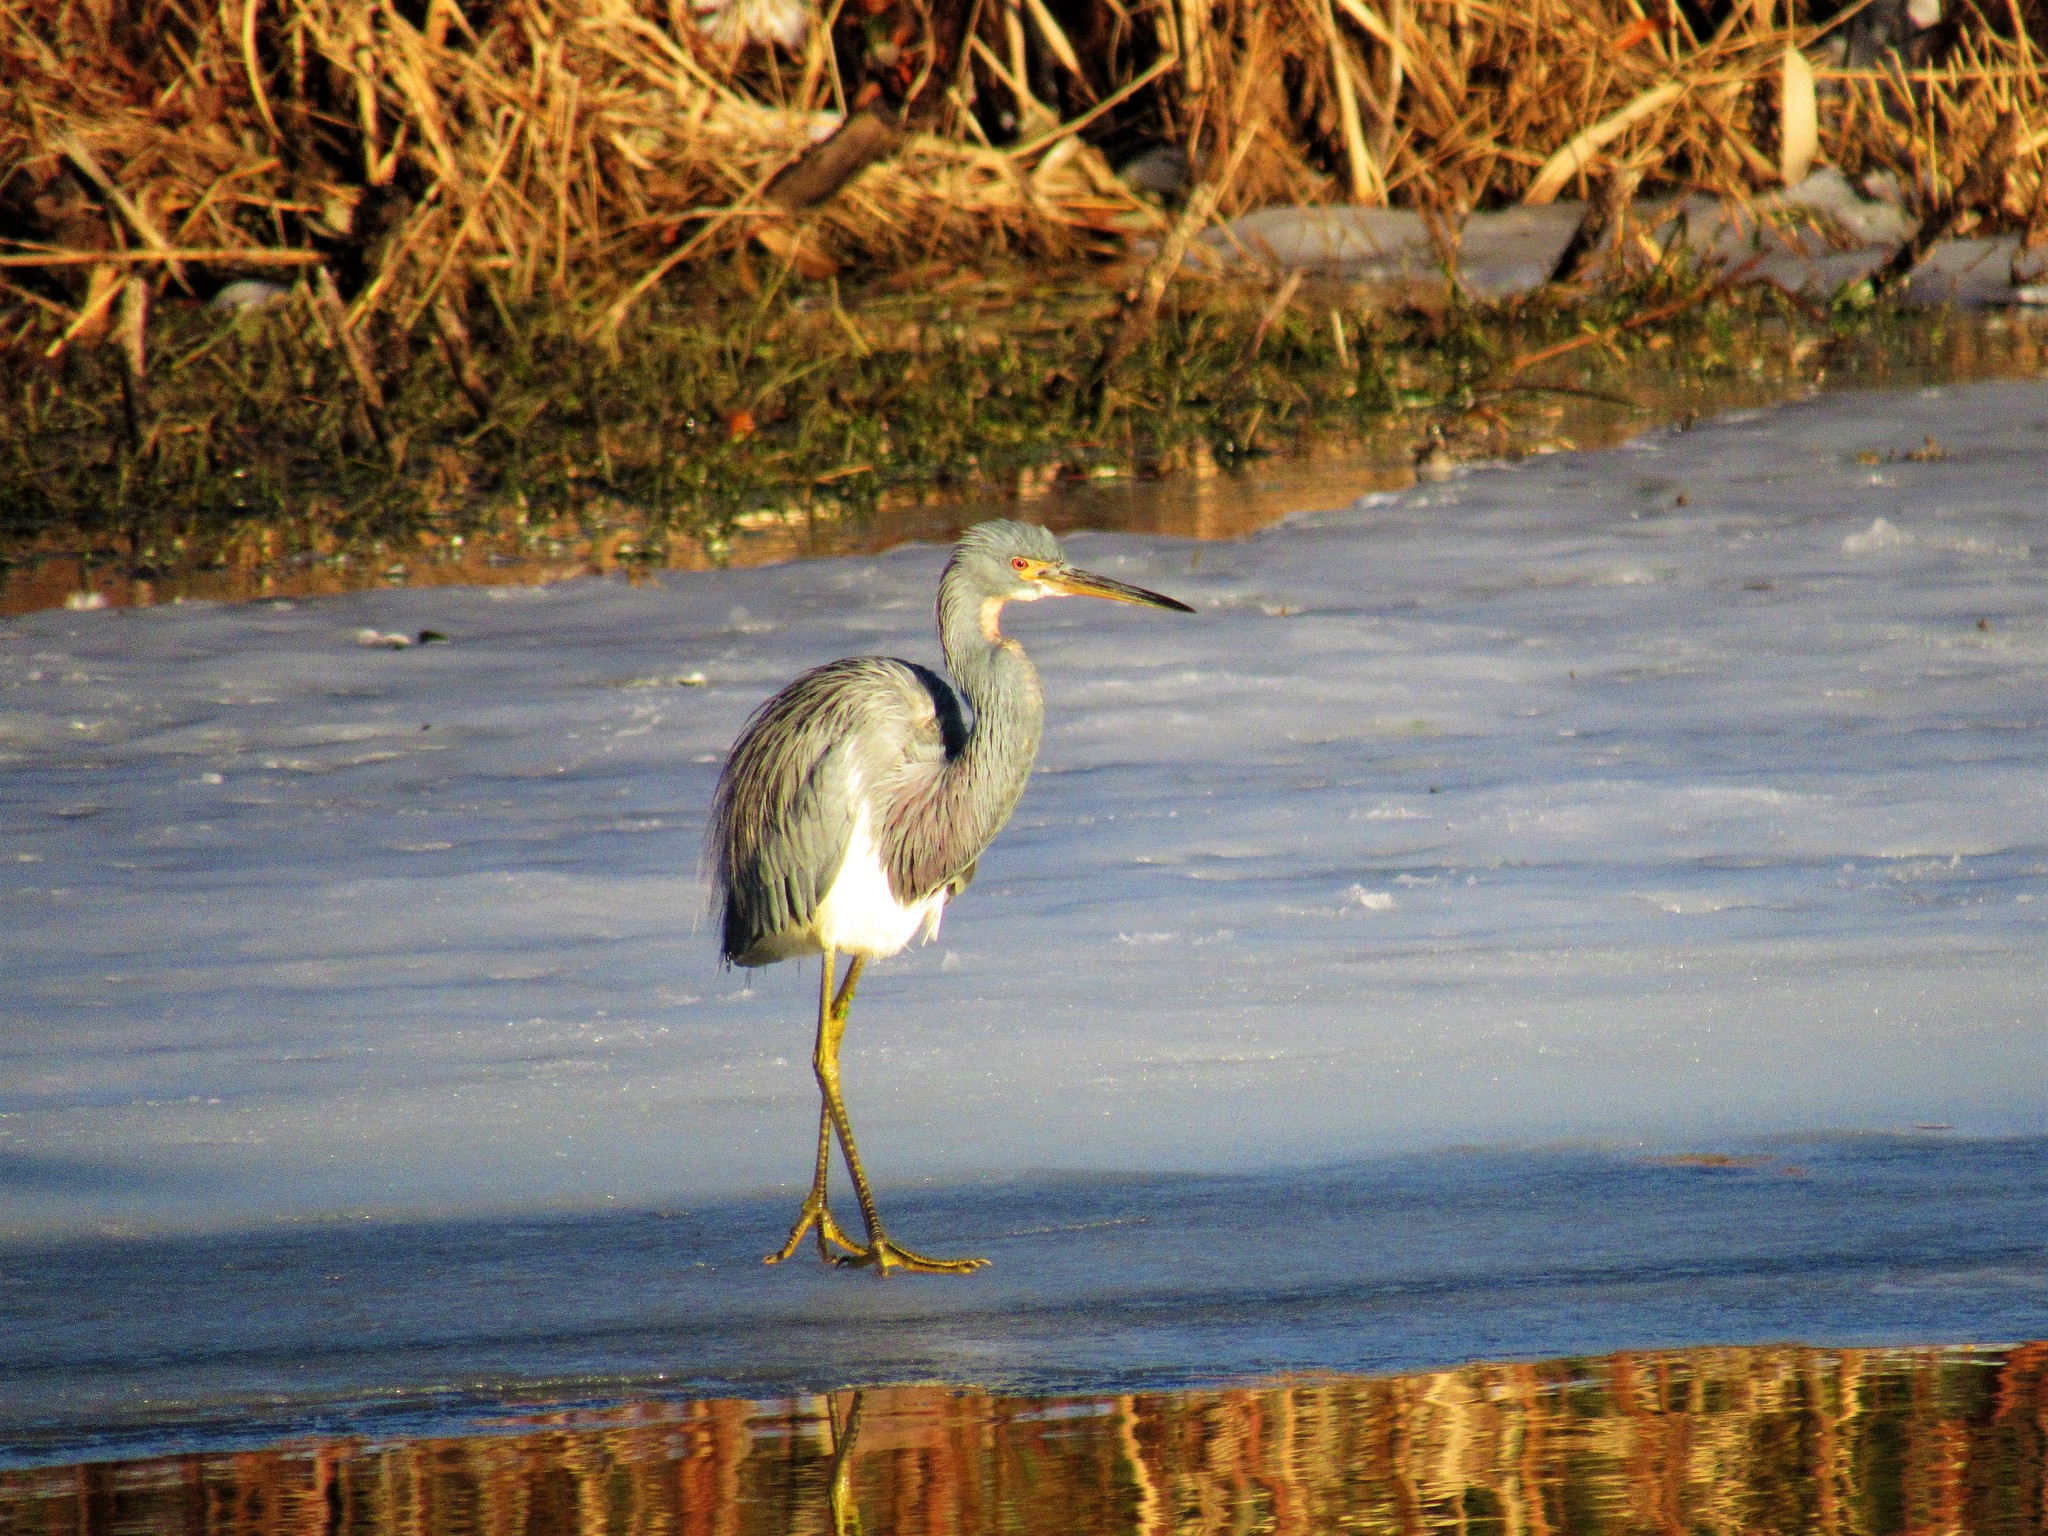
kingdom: Animalia
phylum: Chordata
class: Aves
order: Pelecaniformes
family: Ardeidae
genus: Egretta
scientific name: Egretta tricolor
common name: Tricolored heron
